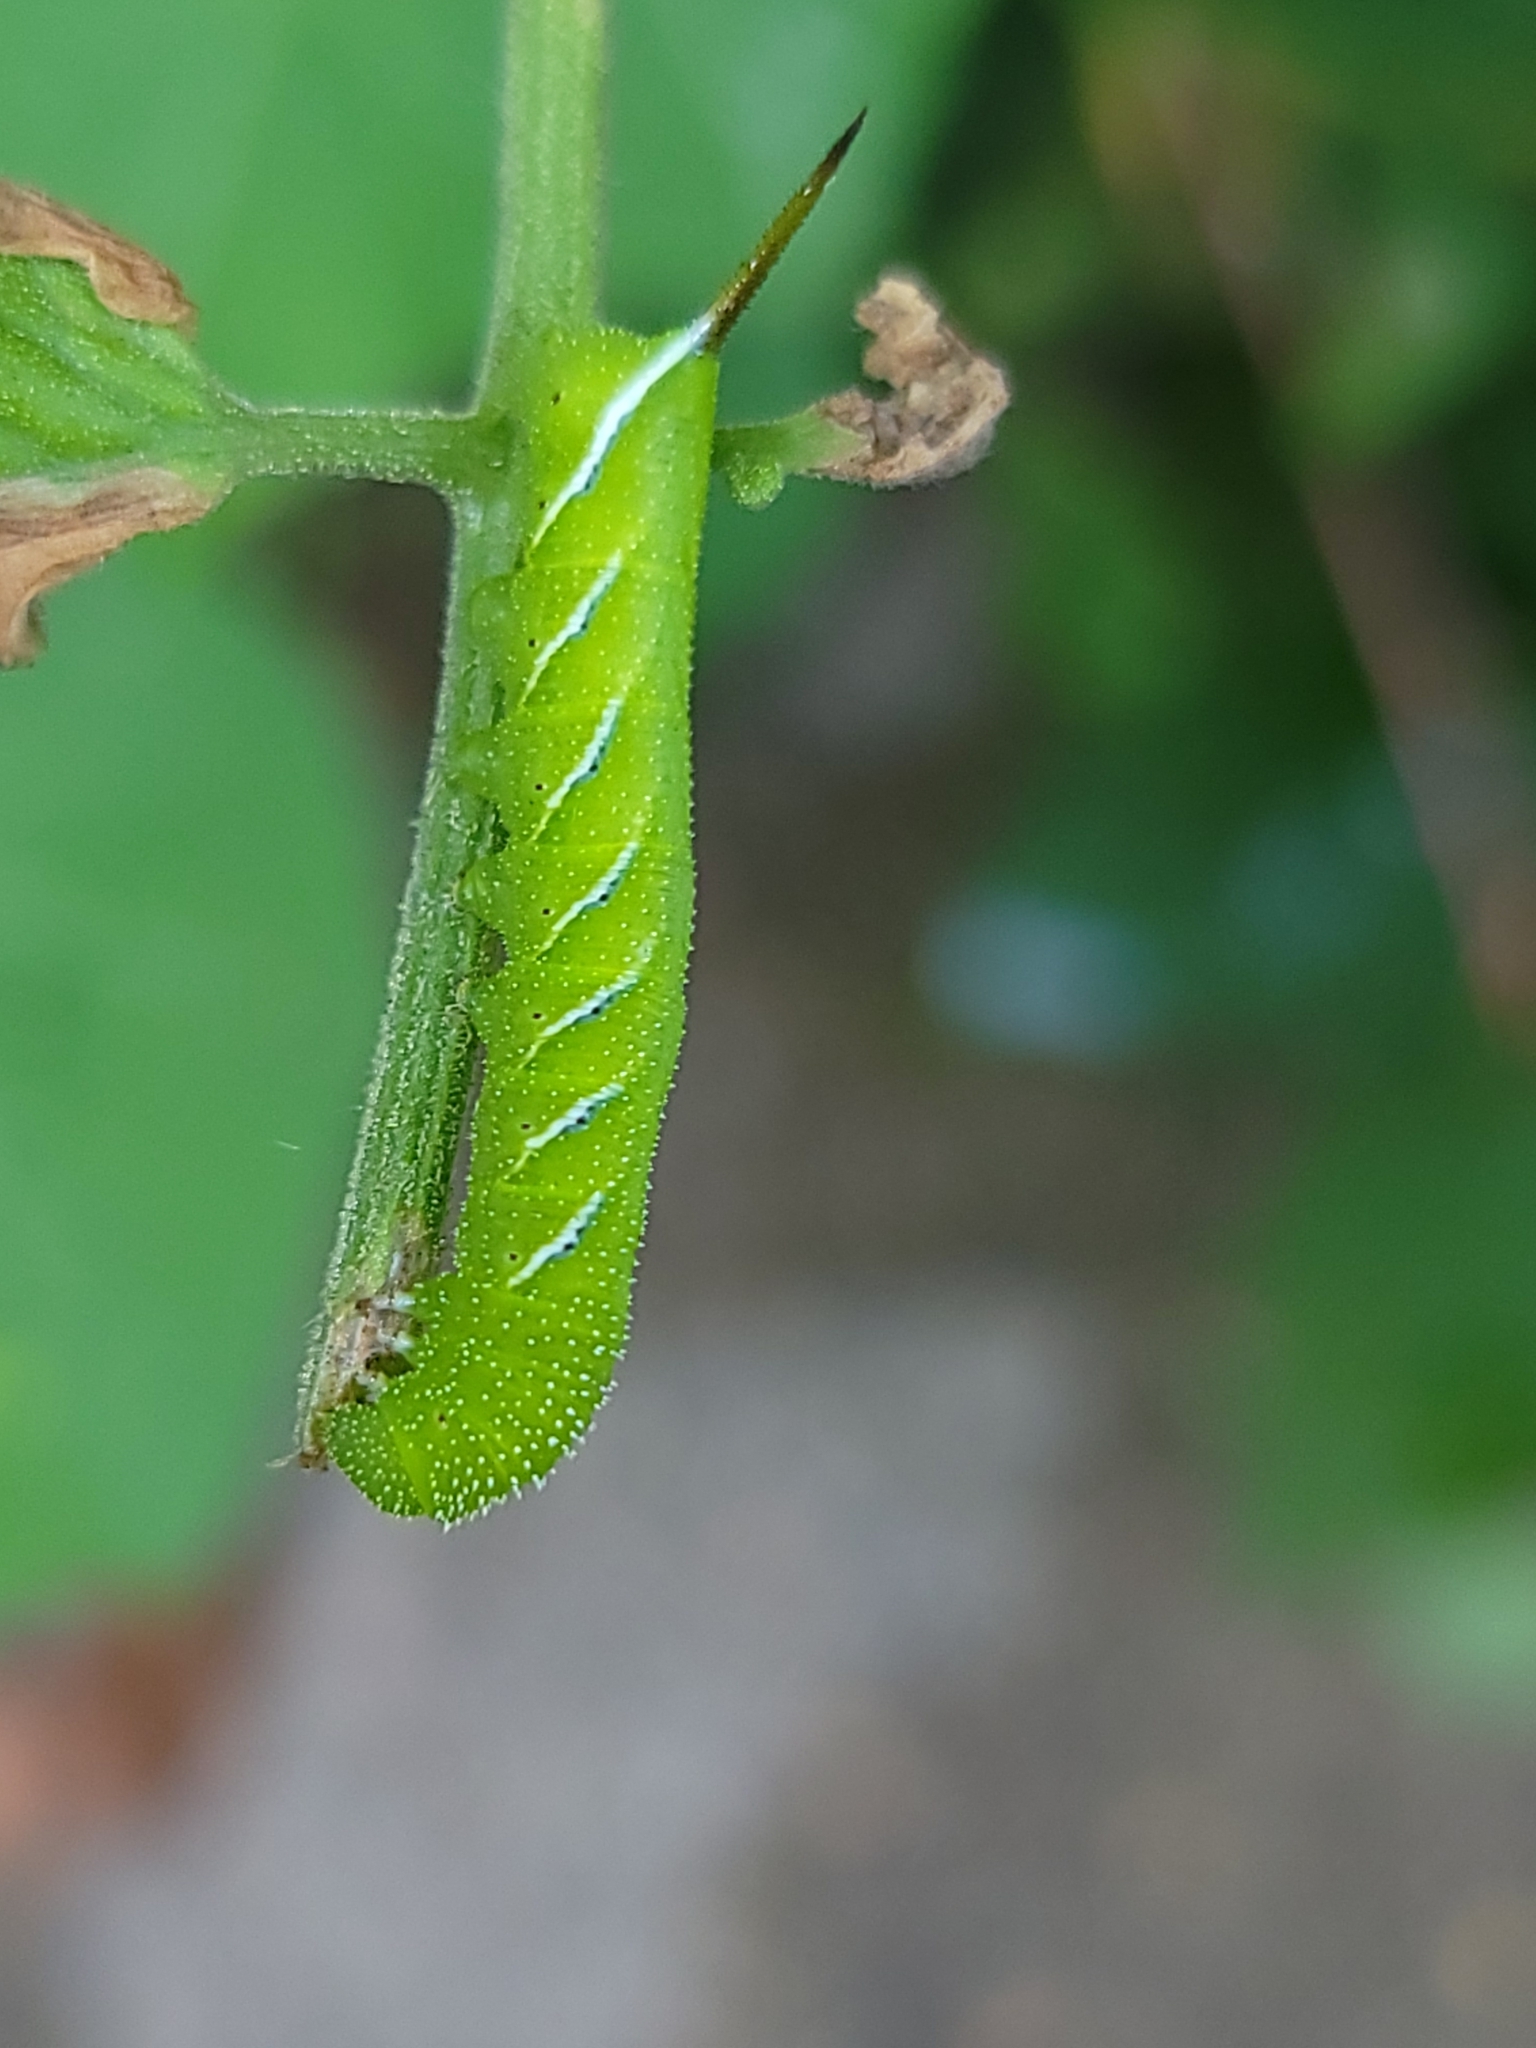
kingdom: Animalia
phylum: Arthropoda
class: Insecta
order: Lepidoptera
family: Sphingidae
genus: Manduca
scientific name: Manduca sexta
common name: Carolina sphinx
